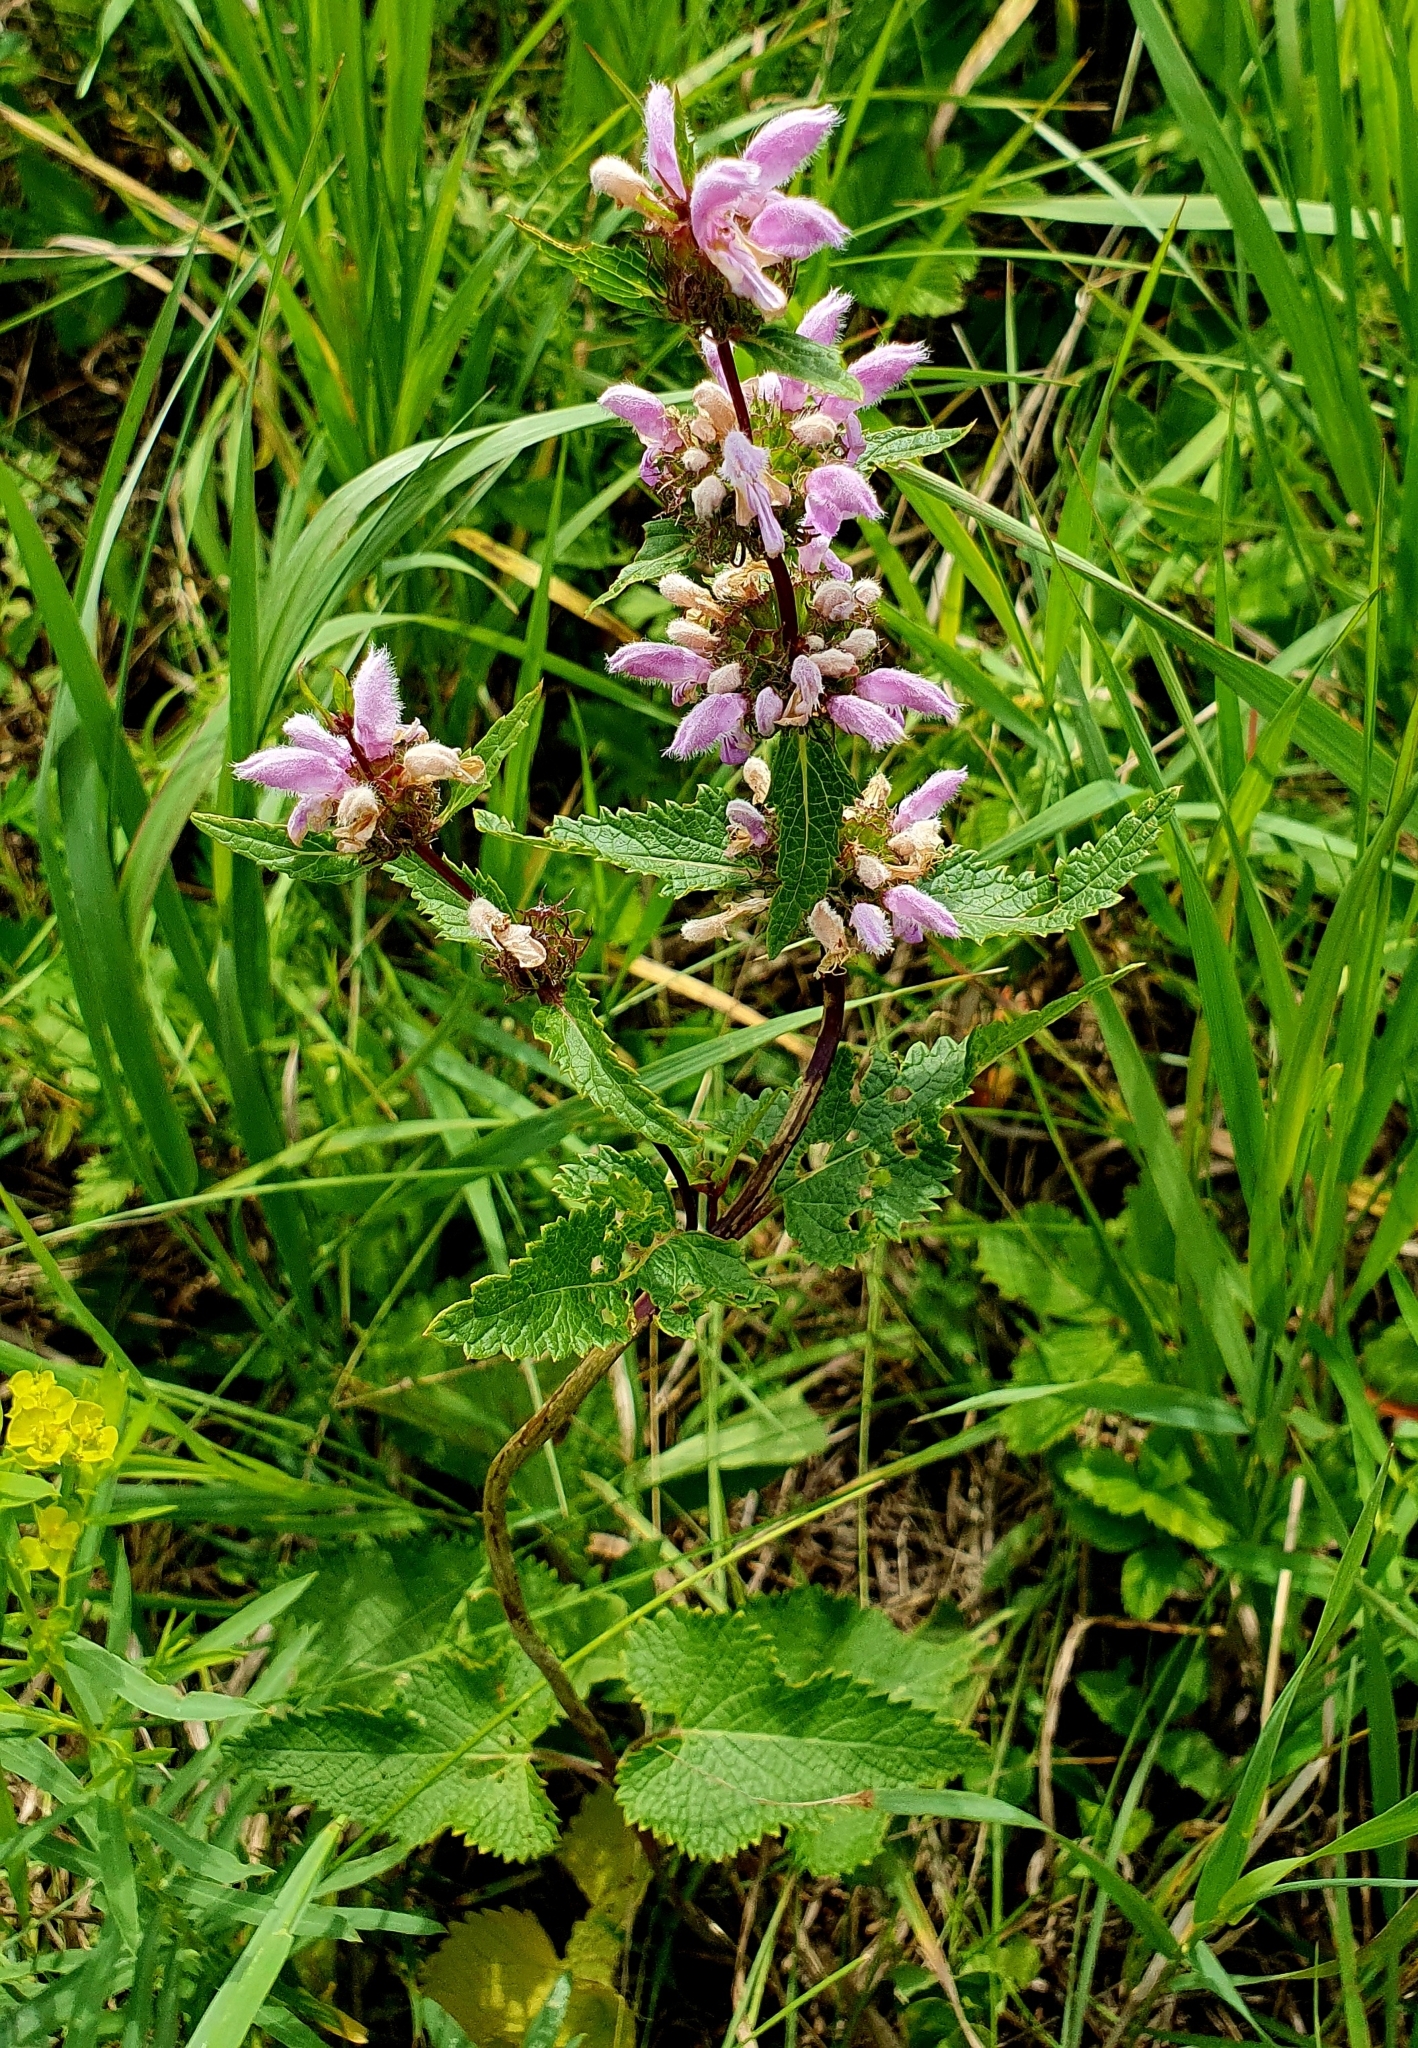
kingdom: Plantae
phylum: Tracheophyta
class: Magnoliopsida
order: Lamiales
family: Lamiaceae
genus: Phlomoides
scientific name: Phlomoides tuberosa
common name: Tuberous jerusalem sage
